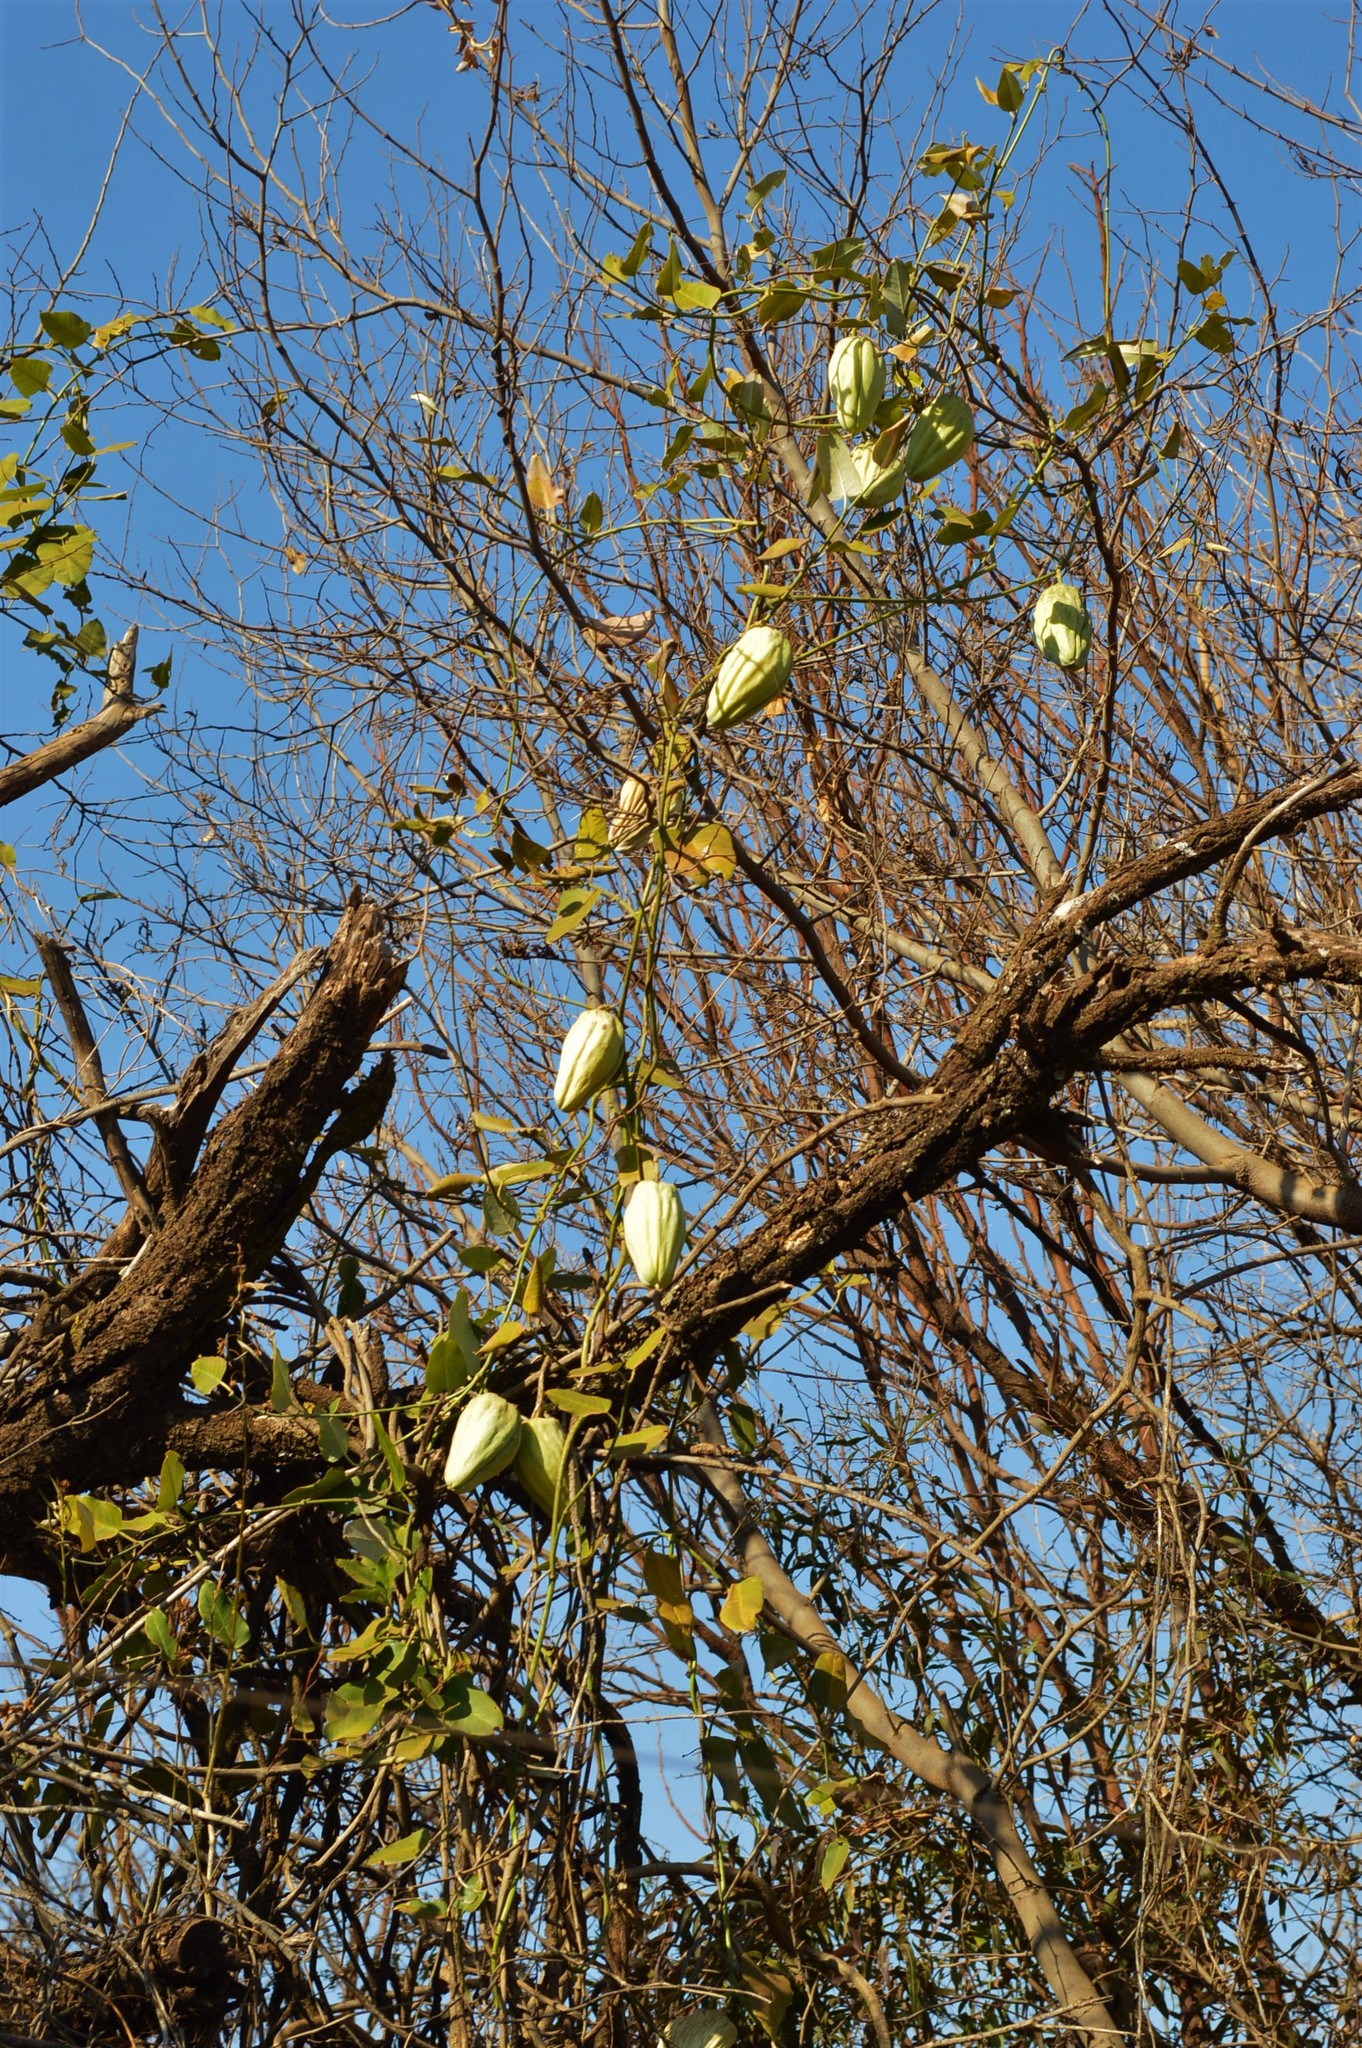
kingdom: Plantae
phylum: Tracheophyta
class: Magnoliopsida
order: Gentianales
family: Apocynaceae
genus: Araujia
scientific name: Araujia sericifera
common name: White bladderflower
